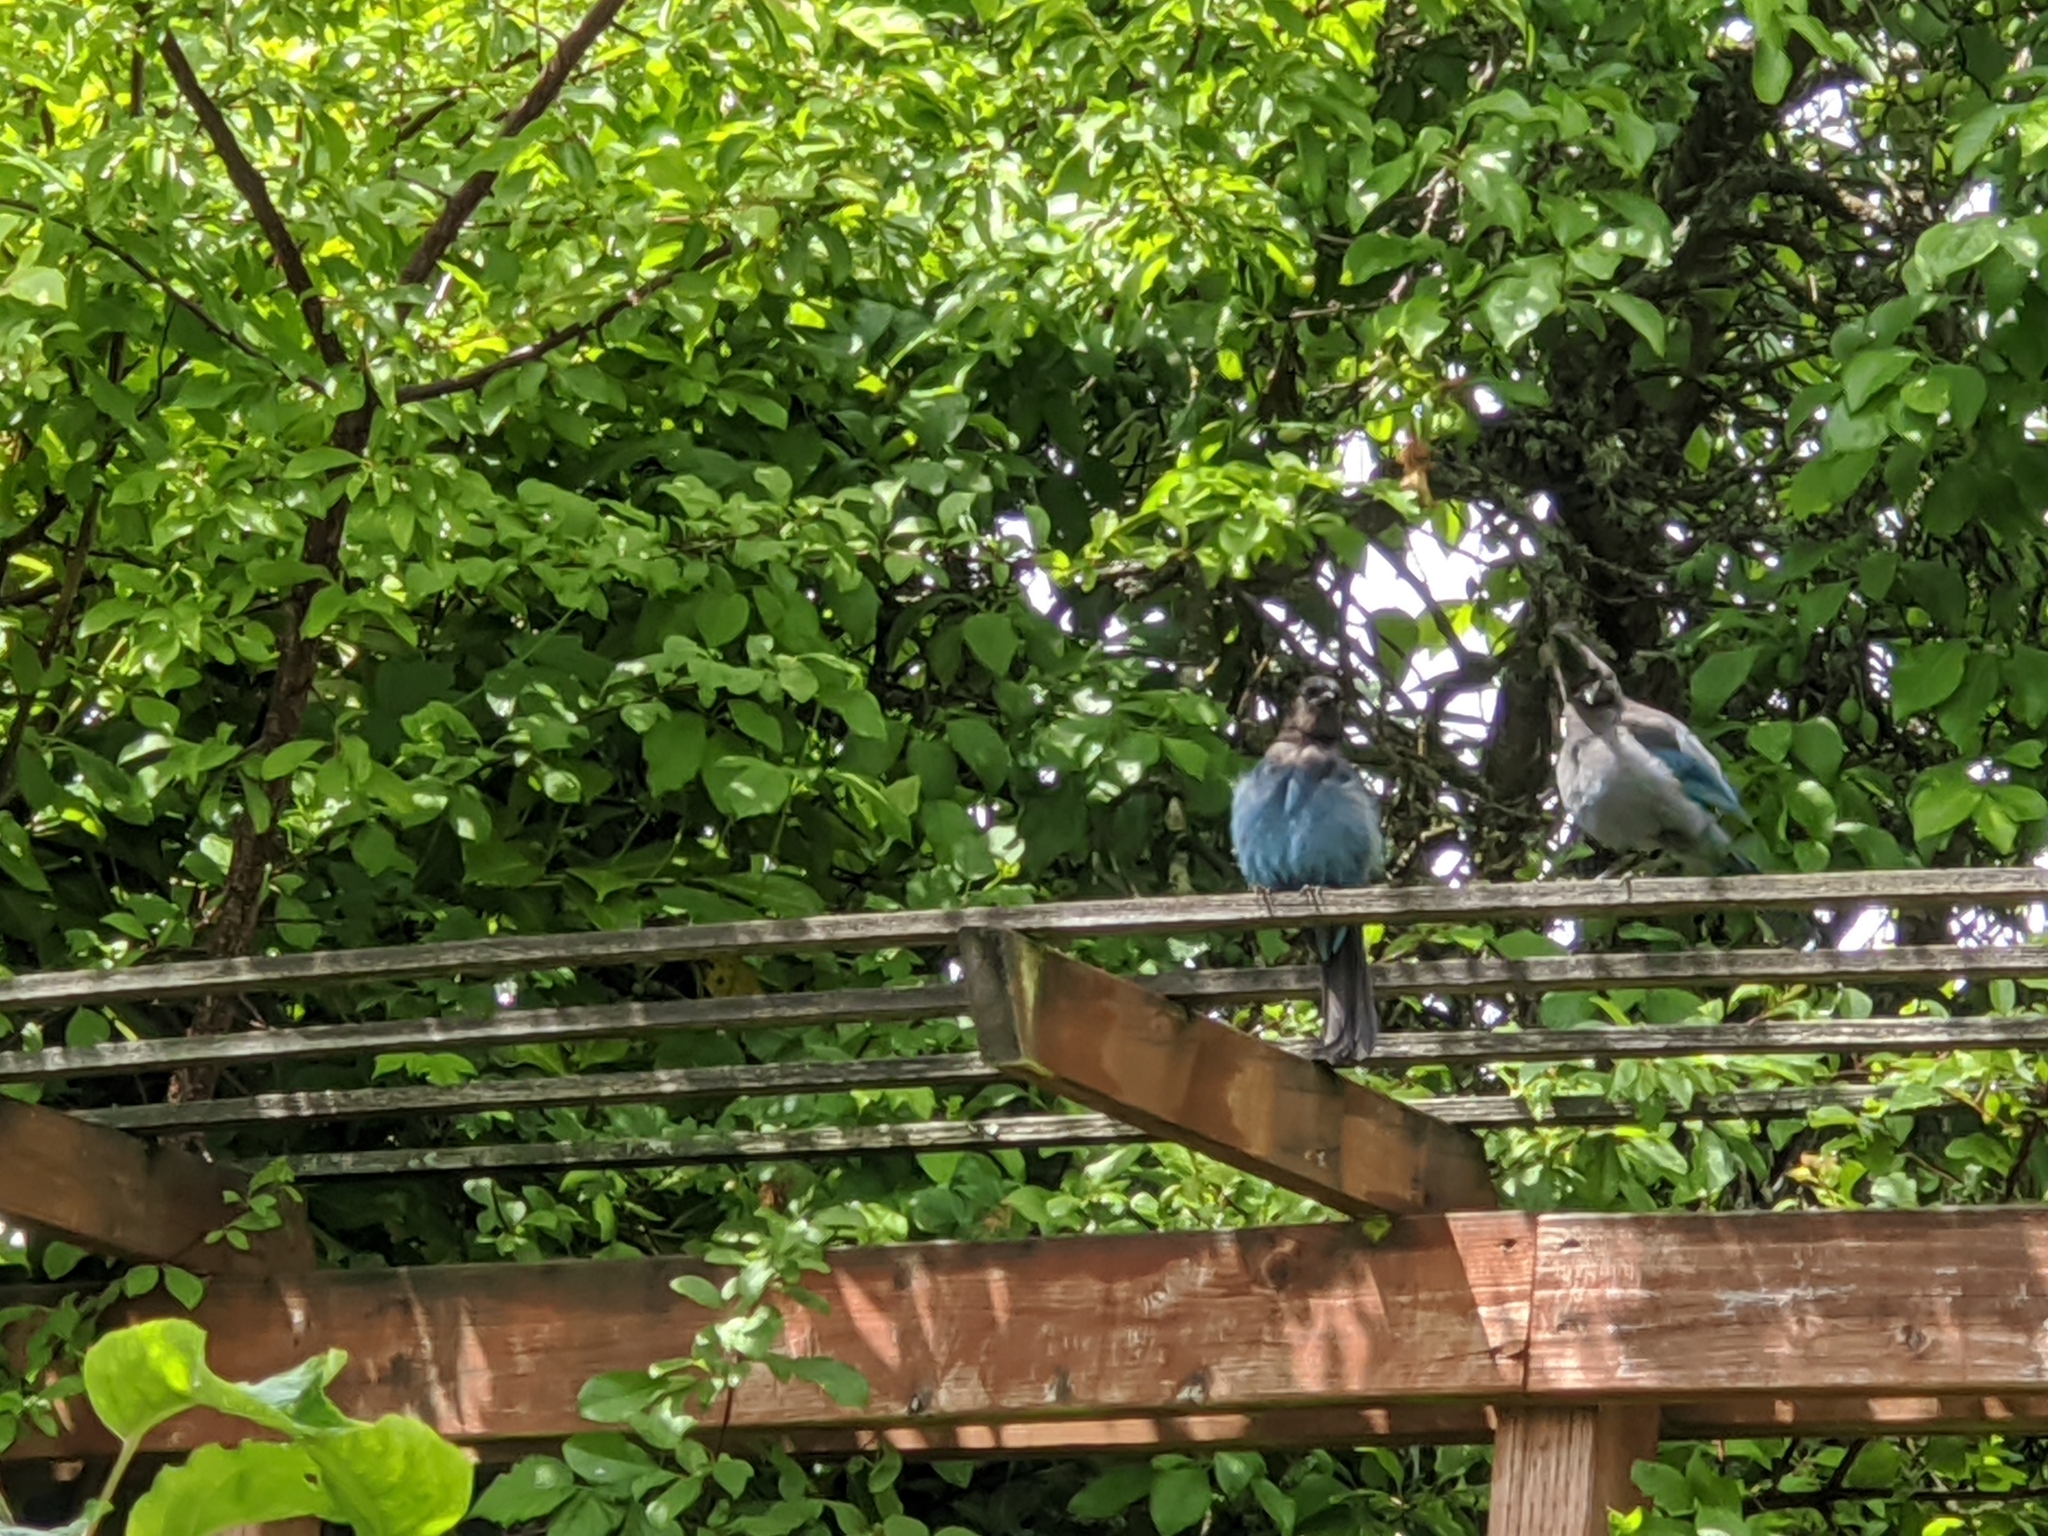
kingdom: Animalia
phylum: Chordata
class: Aves
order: Passeriformes
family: Corvidae
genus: Cyanocitta
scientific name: Cyanocitta stelleri
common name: Steller's jay
